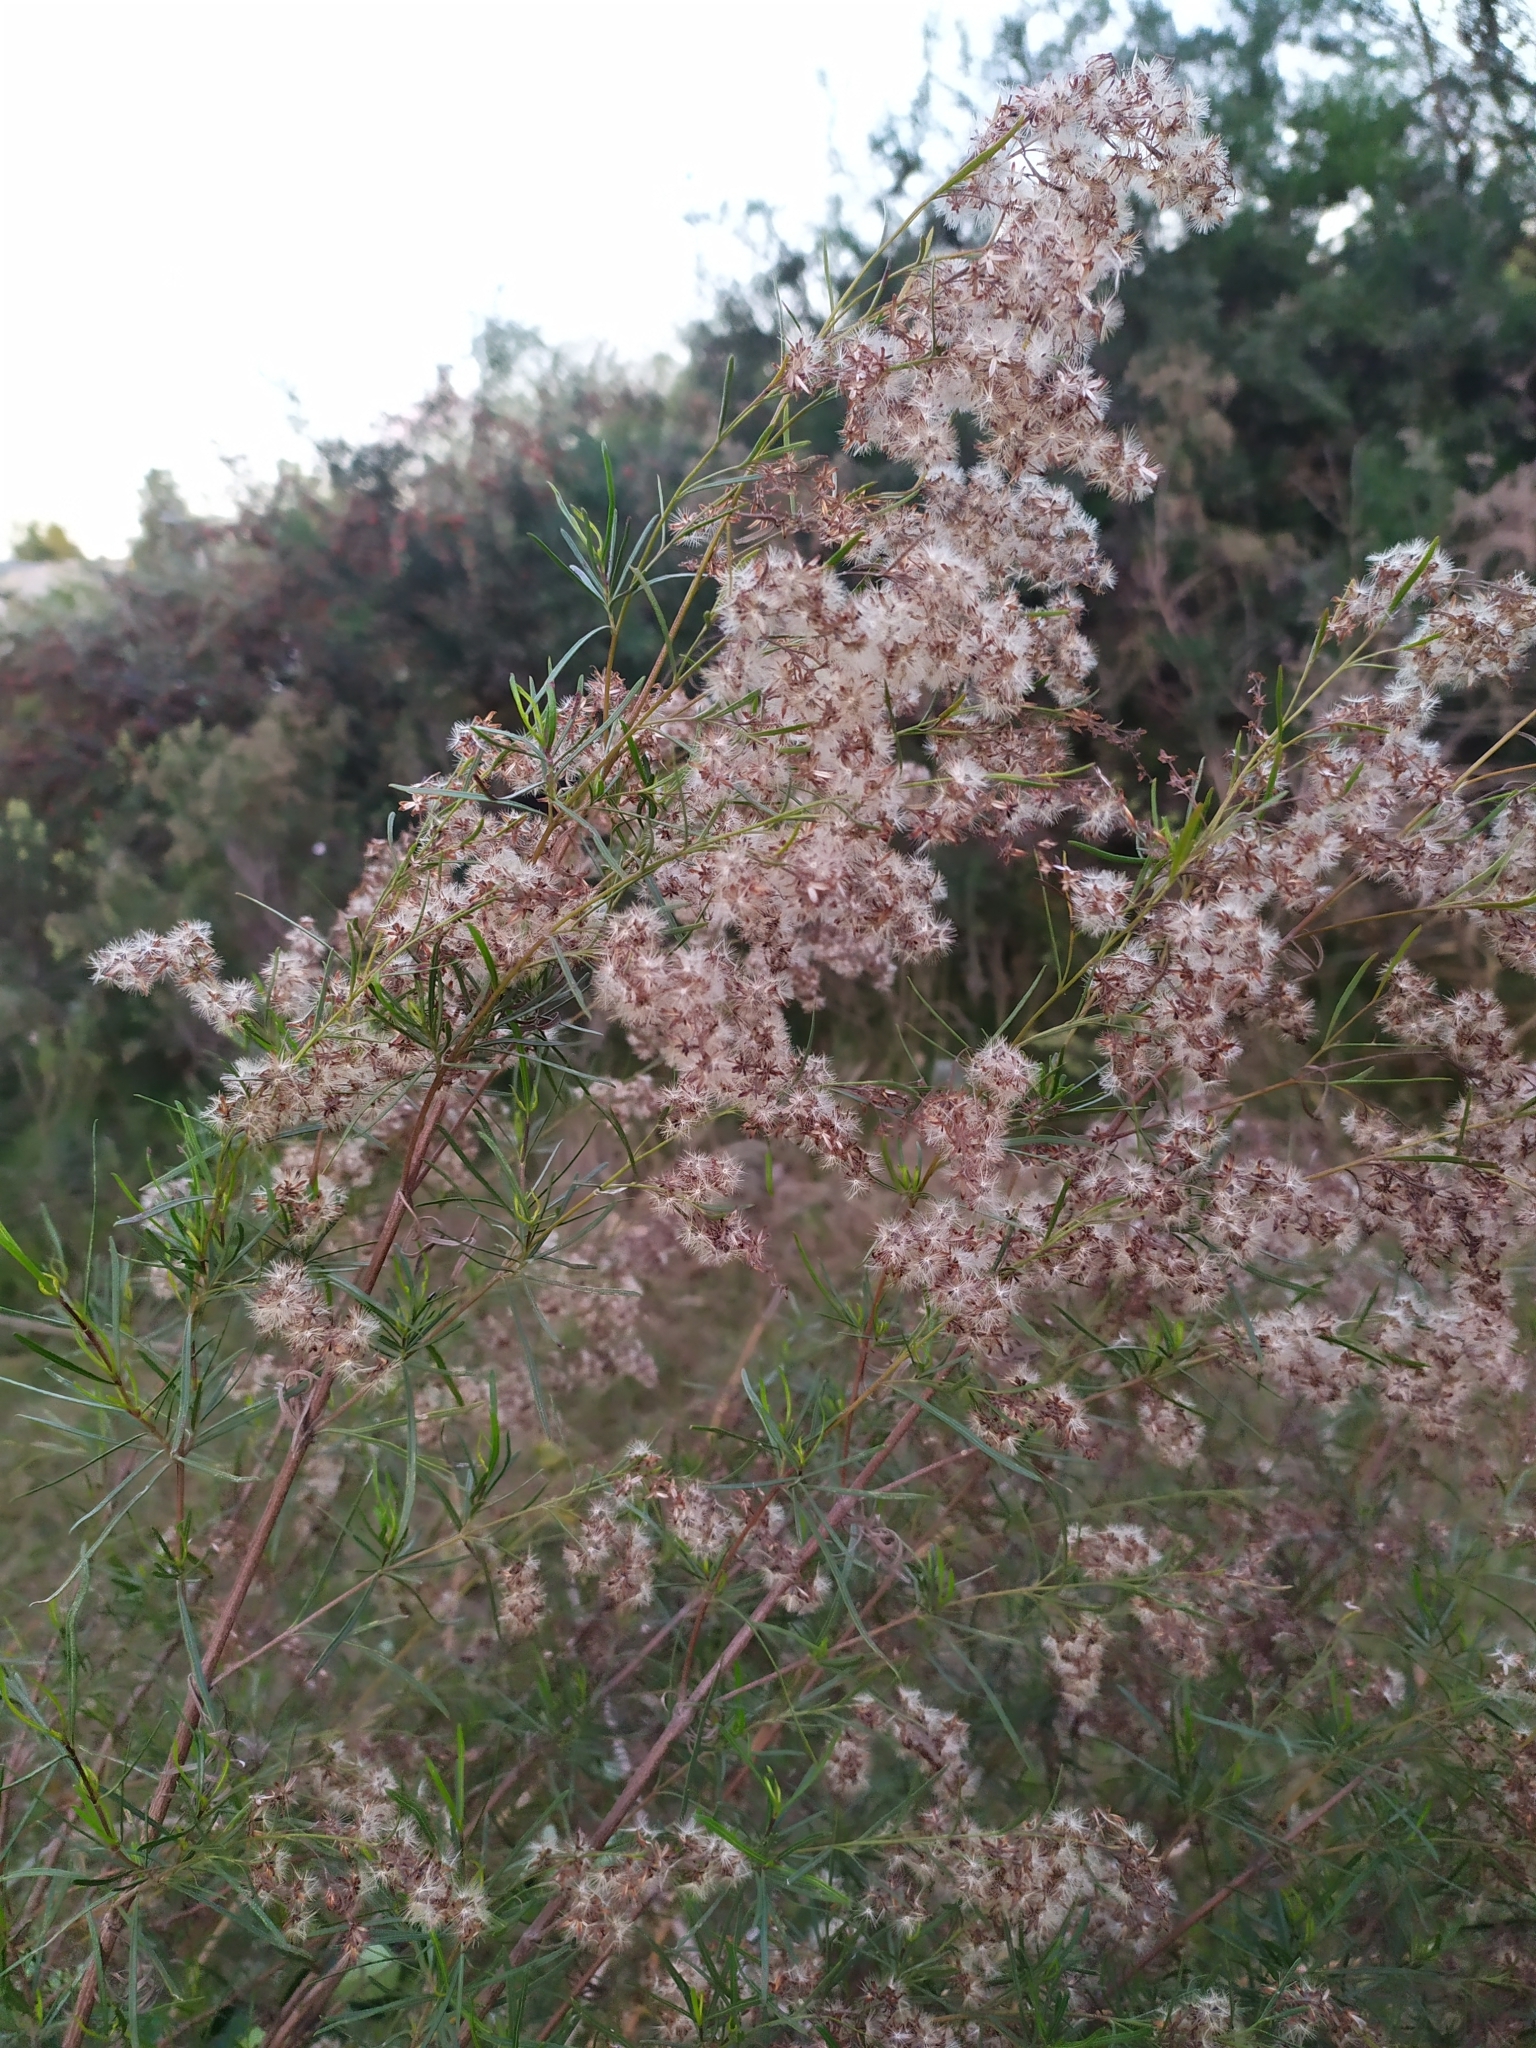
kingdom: Plantae
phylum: Tracheophyta
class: Magnoliopsida
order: Asterales
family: Asteraceae
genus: Acanthostyles
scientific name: Acanthostyles buniifolius
